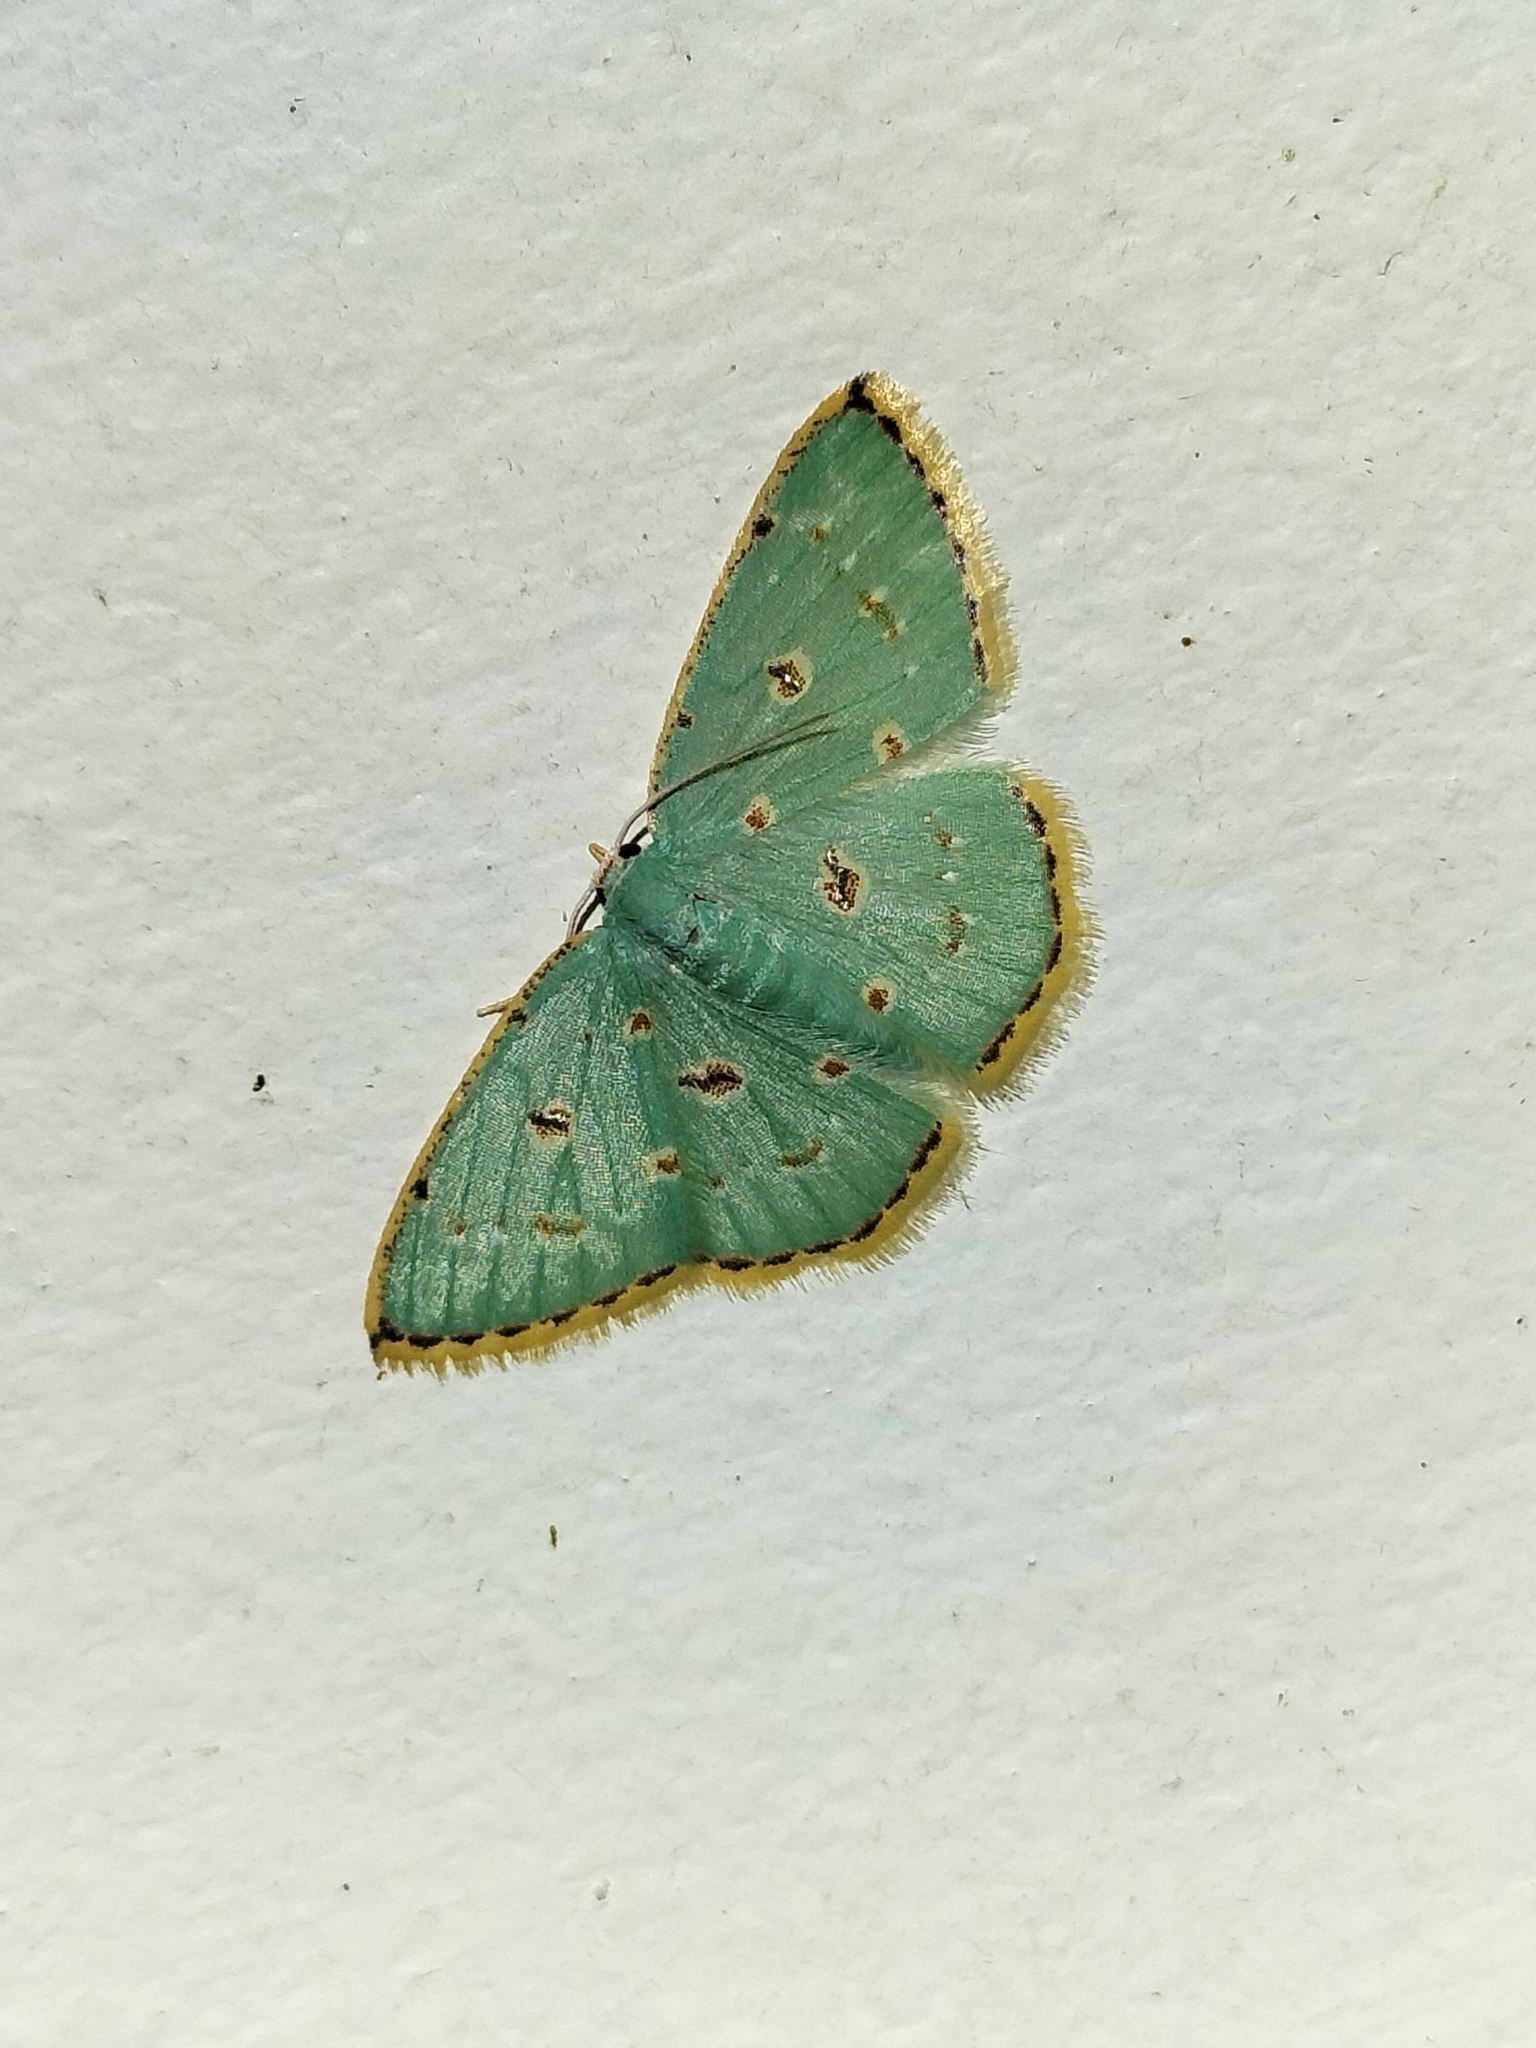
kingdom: Animalia
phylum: Arthropoda
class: Insecta
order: Lepidoptera
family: Geometridae
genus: Comostola
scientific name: Comostola laesaria
